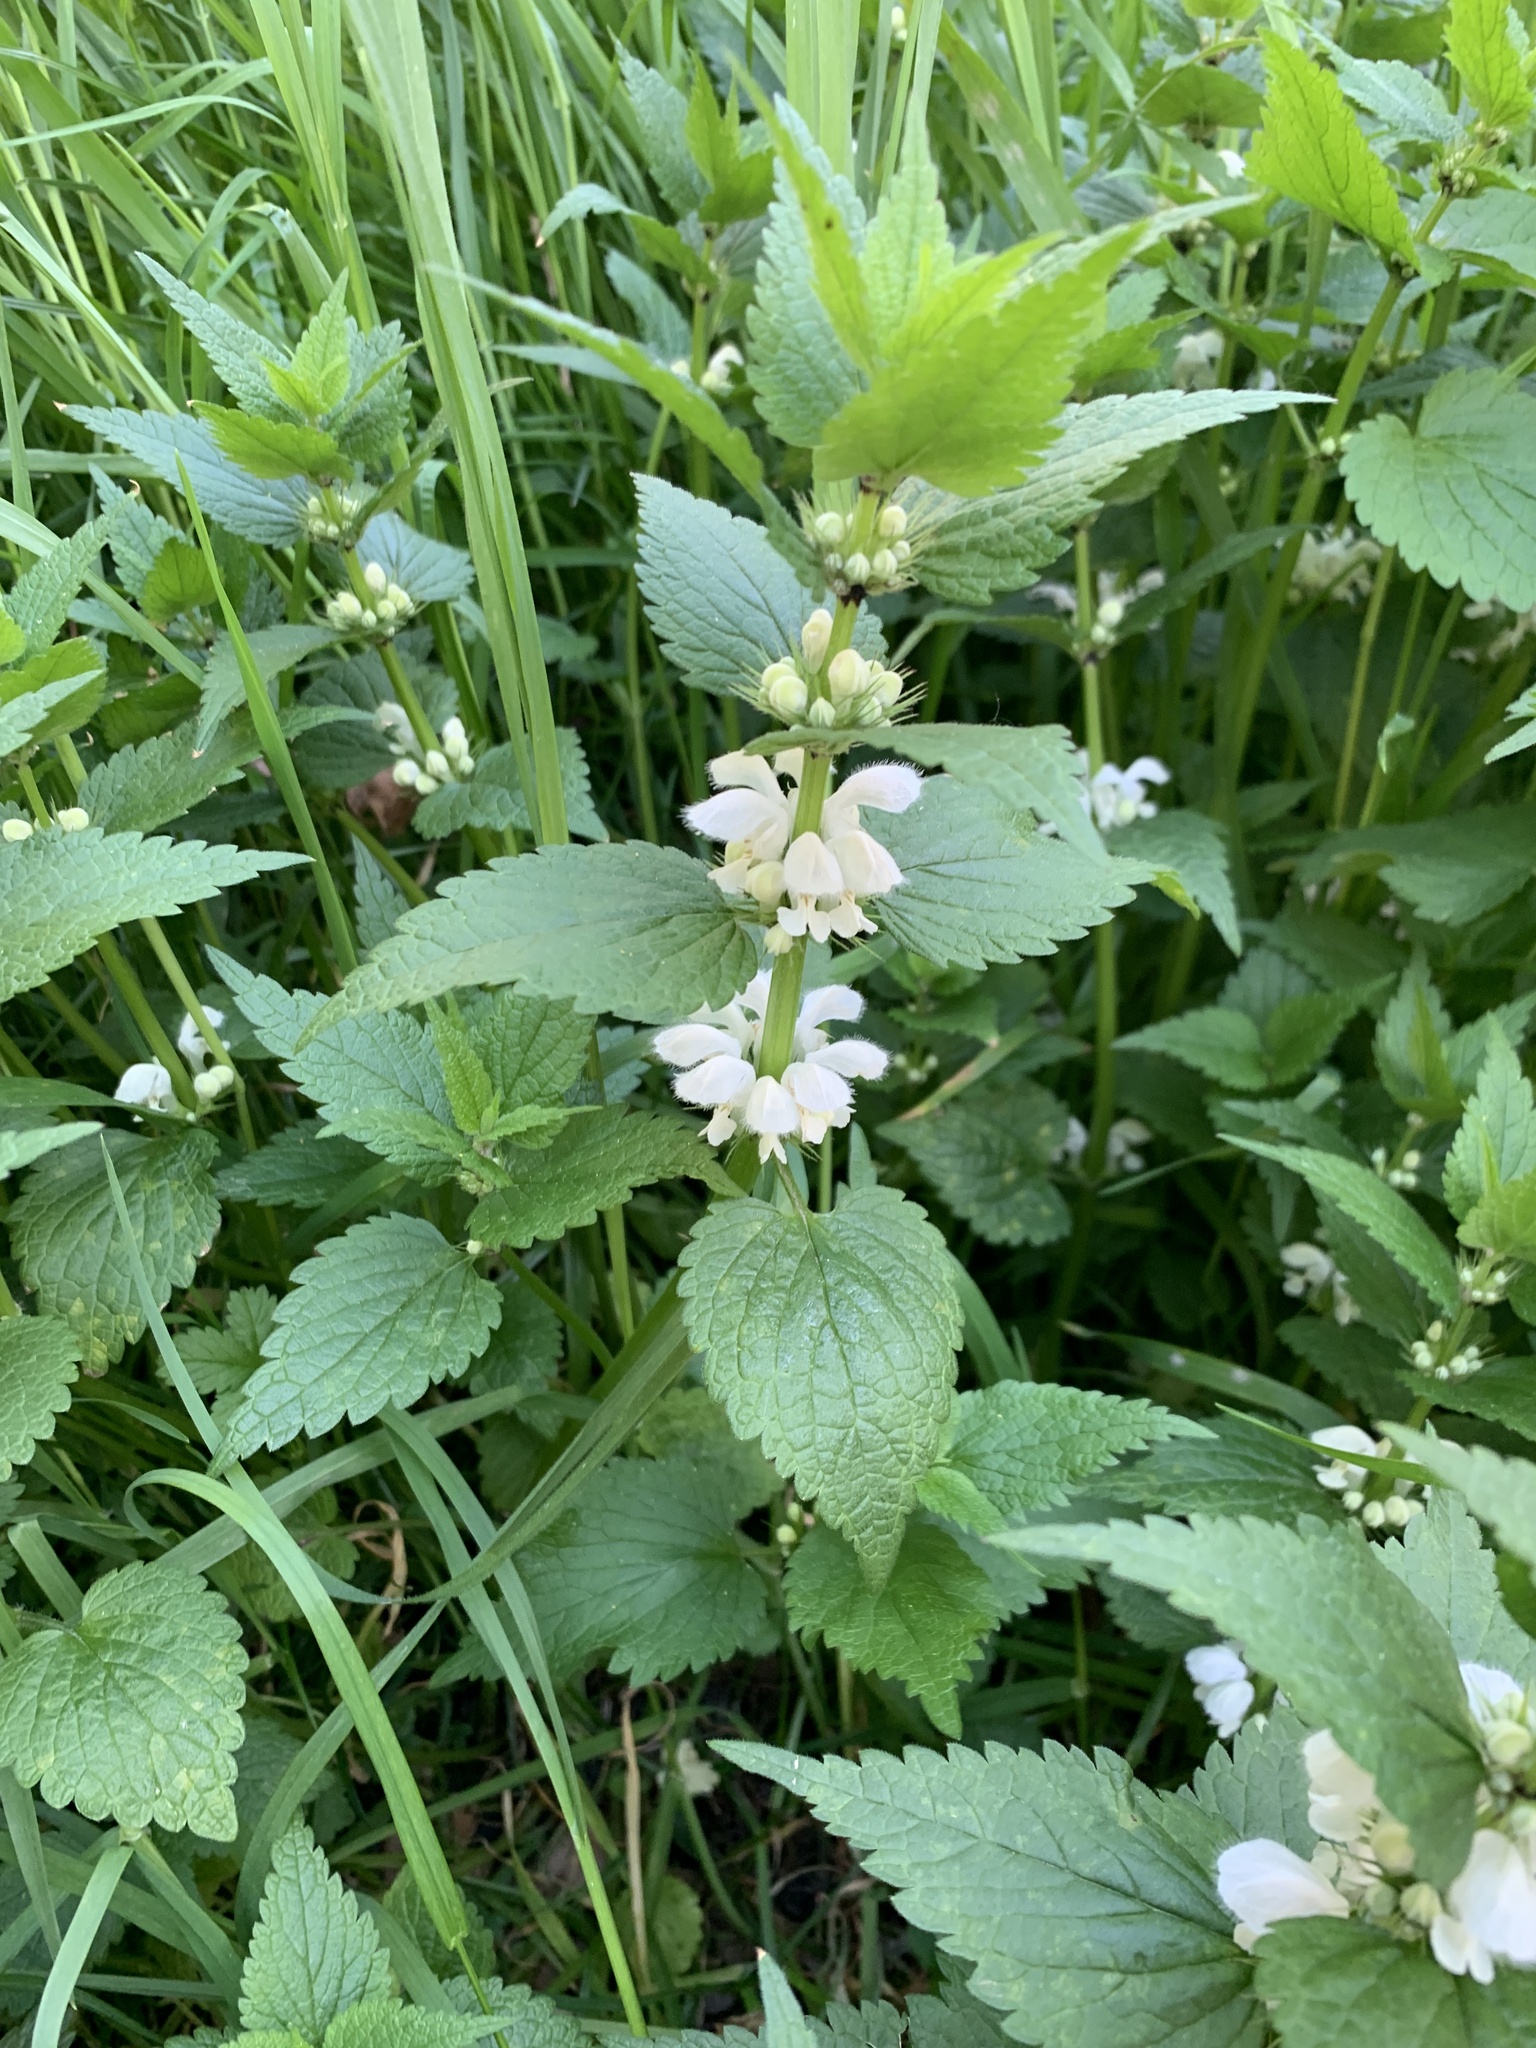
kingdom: Plantae
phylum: Tracheophyta
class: Magnoliopsida
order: Lamiales
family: Lamiaceae
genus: Lamium
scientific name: Lamium album
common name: White dead-nettle
